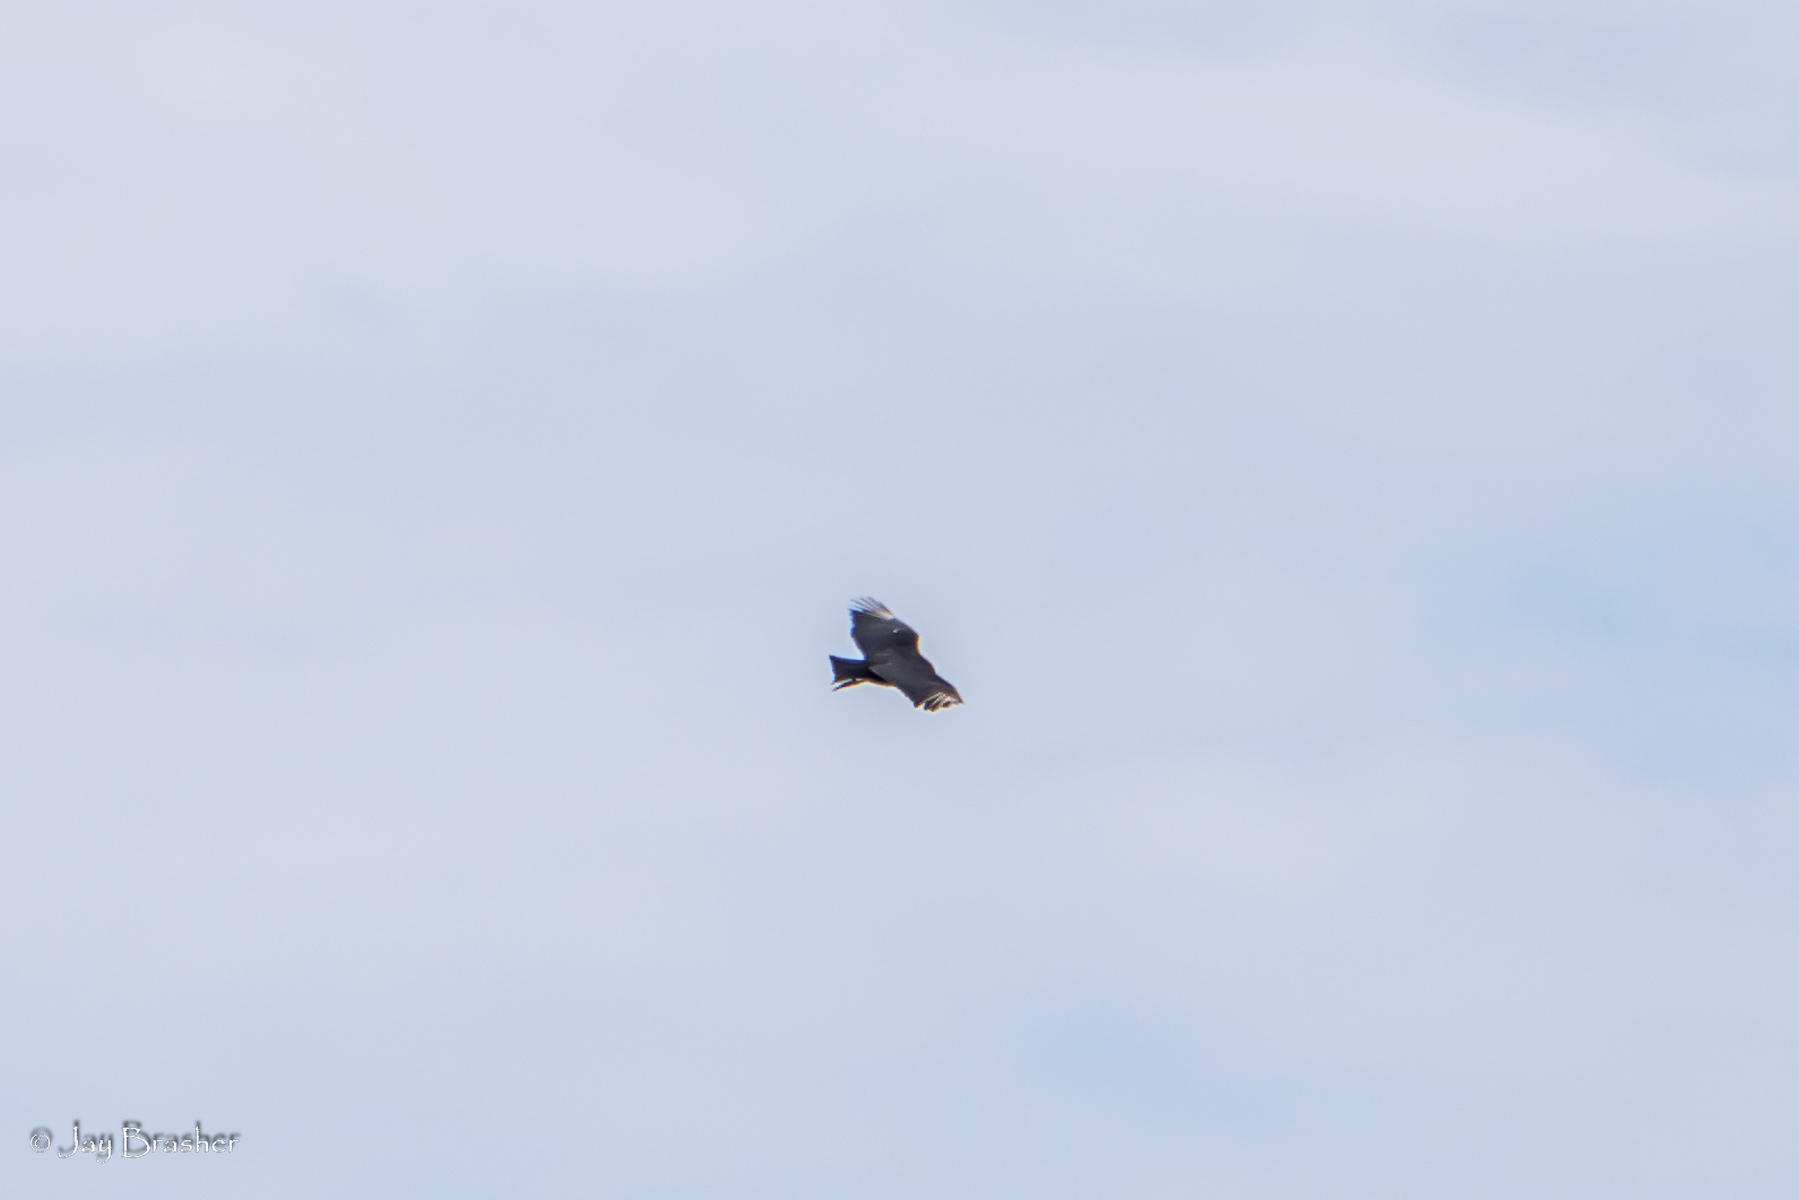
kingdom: Animalia
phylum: Chordata
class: Aves
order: Accipitriformes
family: Cathartidae
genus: Coragyps
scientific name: Coragyps atratus
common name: Black vulture
